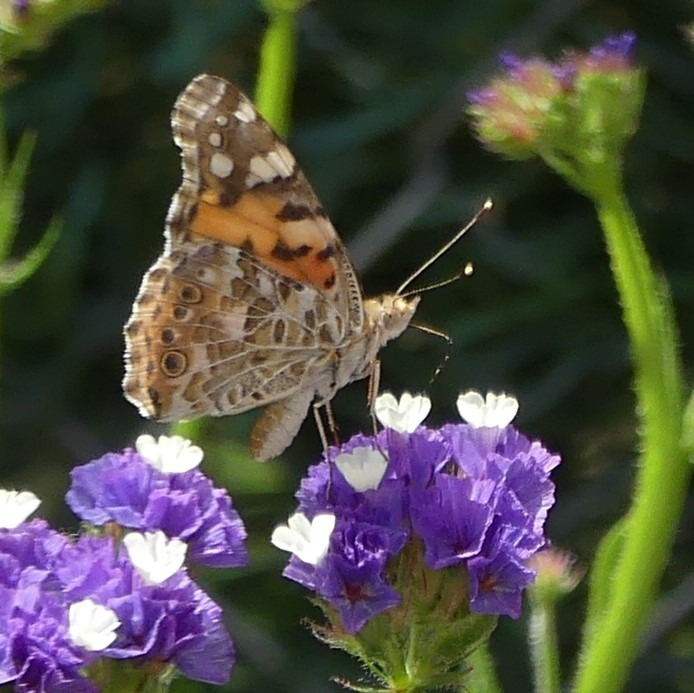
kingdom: Animalia
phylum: Arthropoda
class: Insecta
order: Lepidoptera
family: Nymphalidae
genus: Vanessa
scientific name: Vanessa cardui
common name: Painted lady
